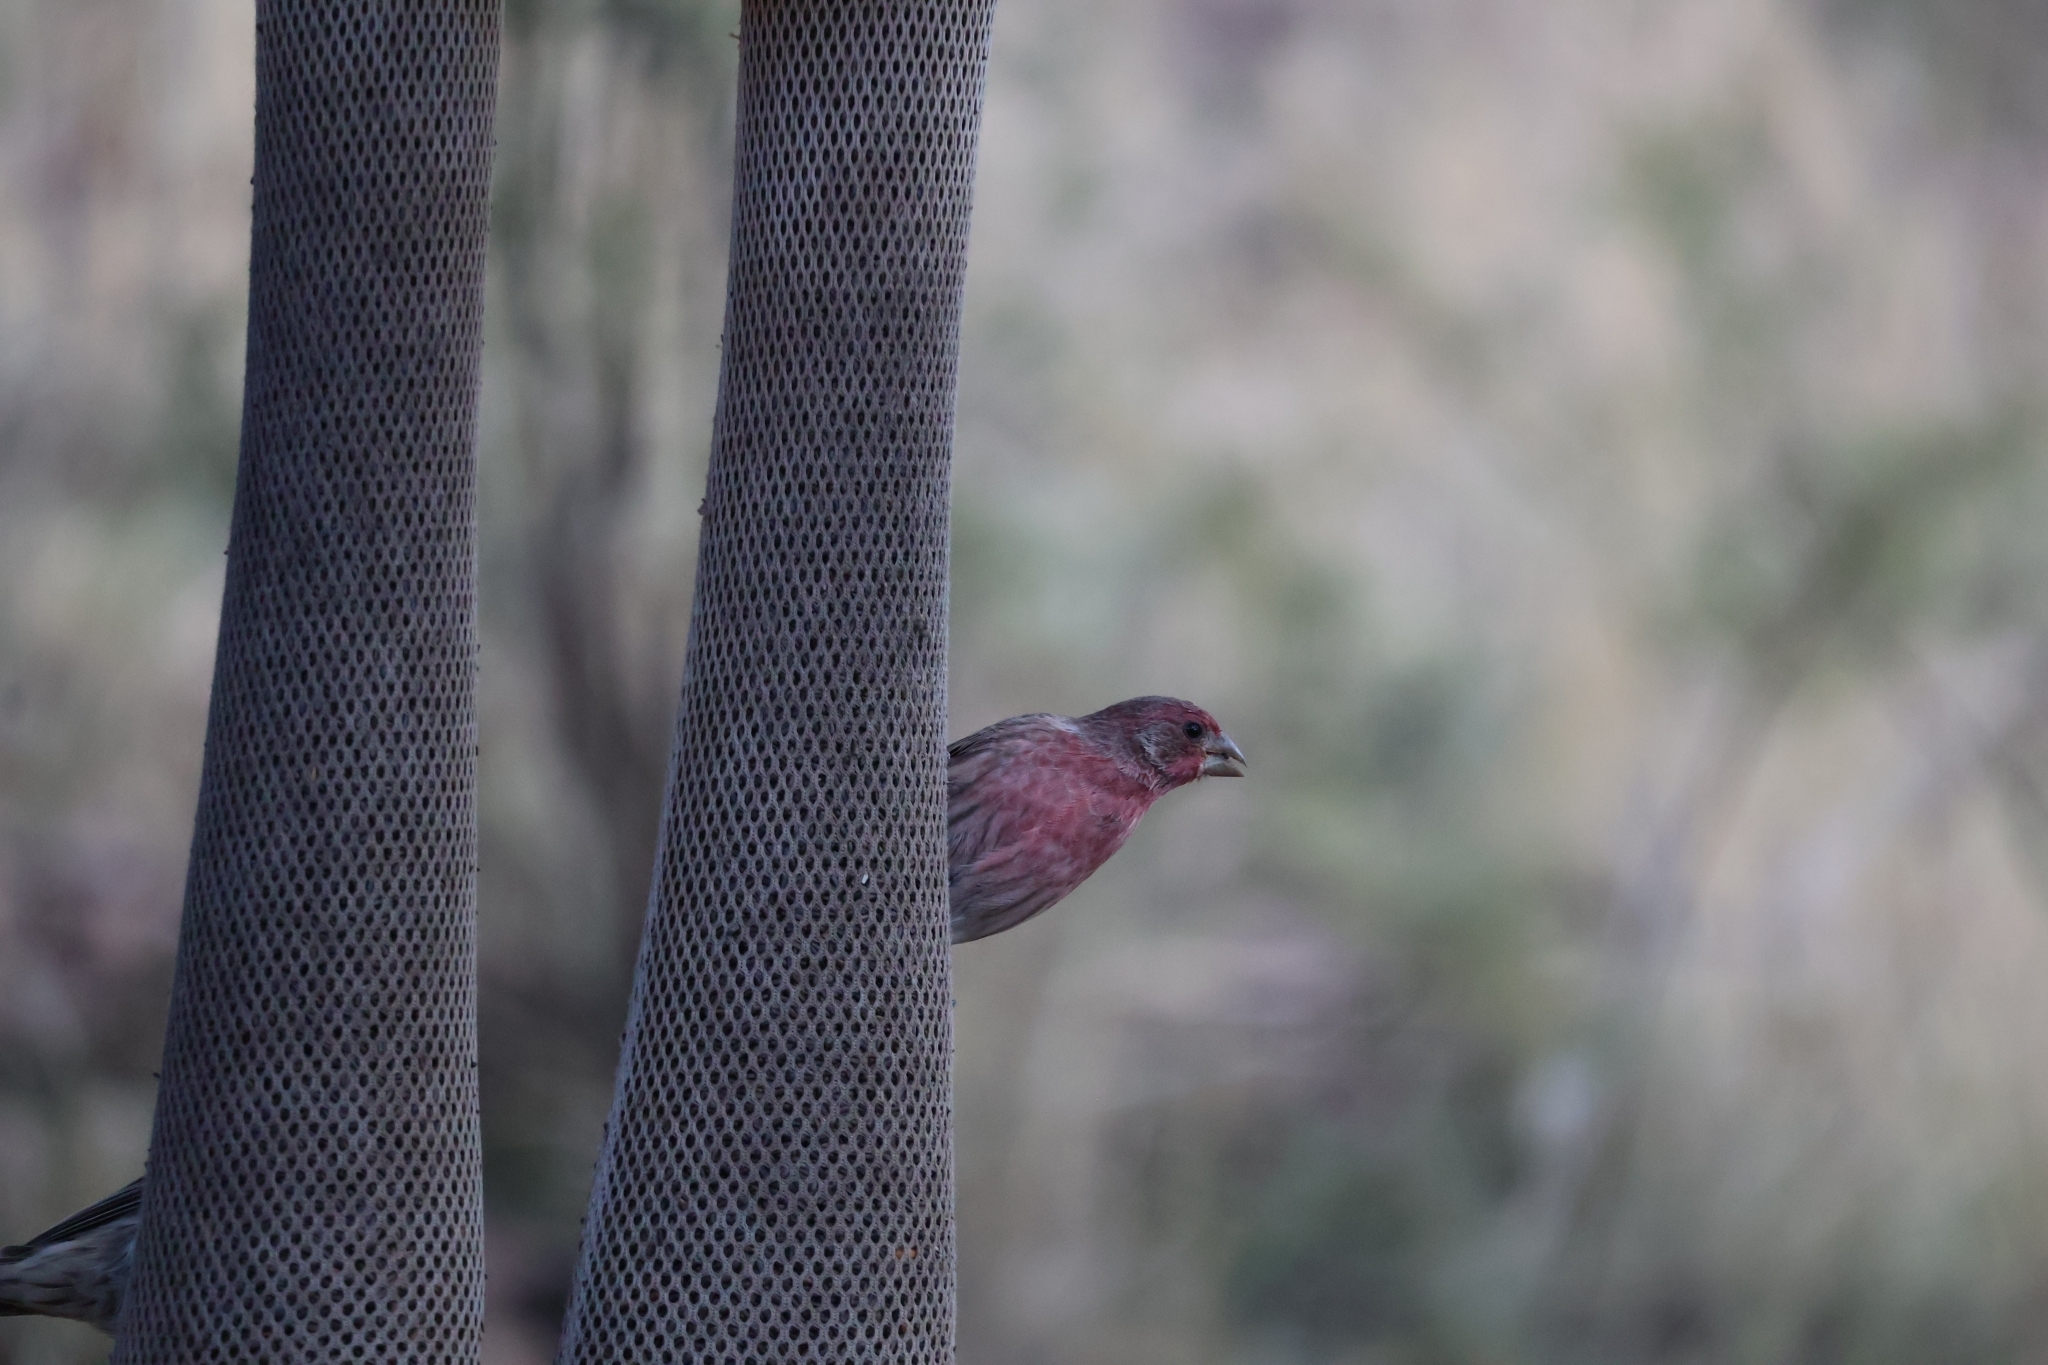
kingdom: Animalia
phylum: Chordata
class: Aves
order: Passeriformes
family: Fringillidae
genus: Haemorhous
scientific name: Haemorhous mexicanus
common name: House finch
